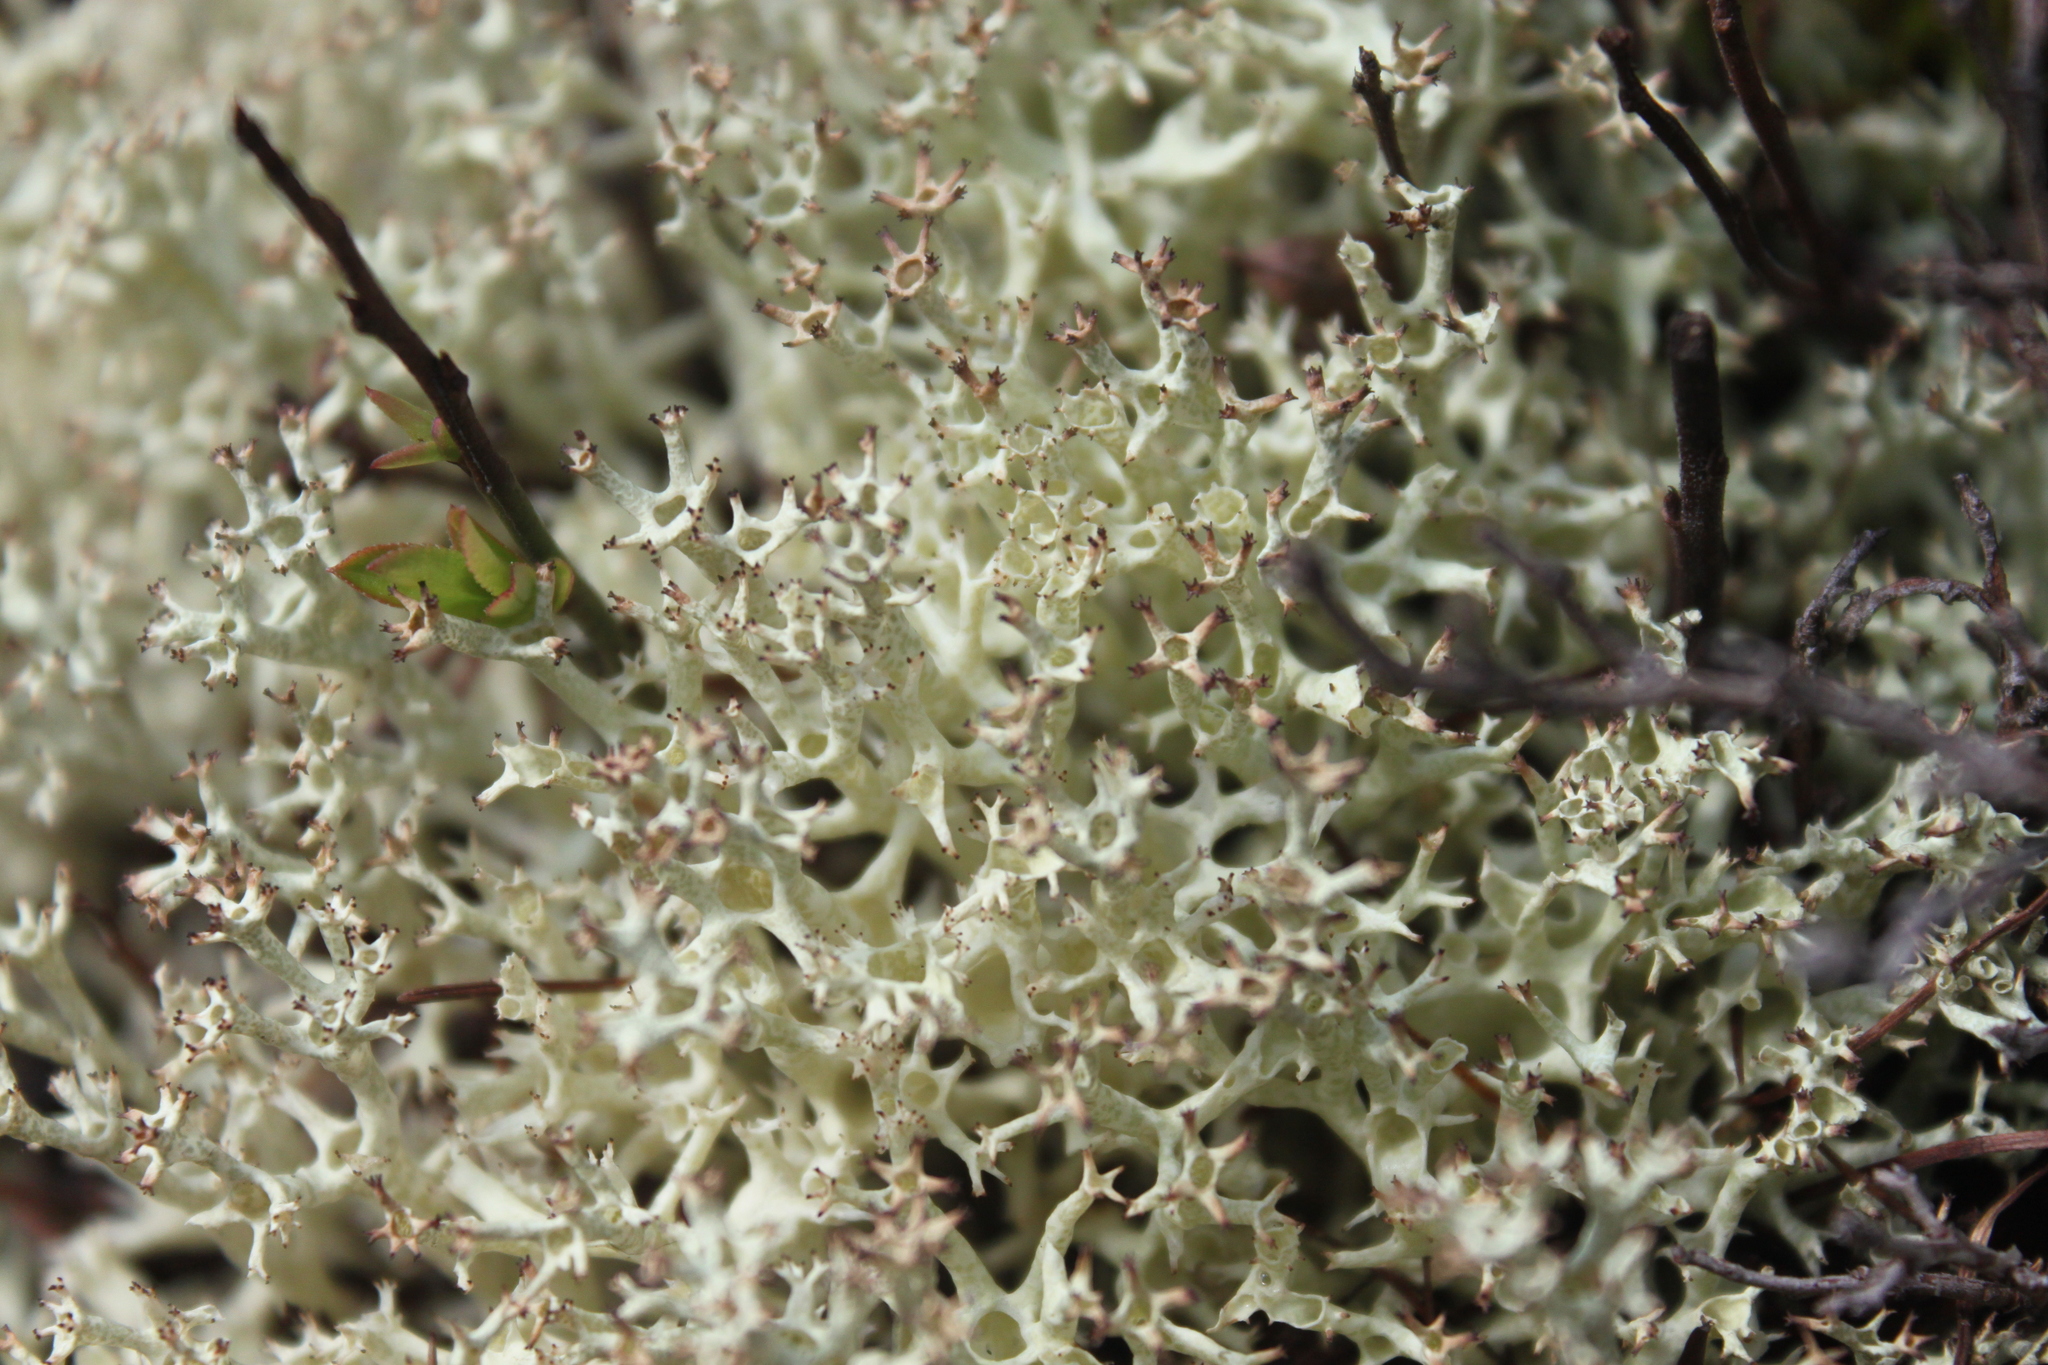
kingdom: Fungi
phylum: Ascomycota
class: Lecanoromycetes
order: Lecanorales
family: Cladoniaceae
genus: Cladonia
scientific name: Cladonia uncialis
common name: Thorn lichen
